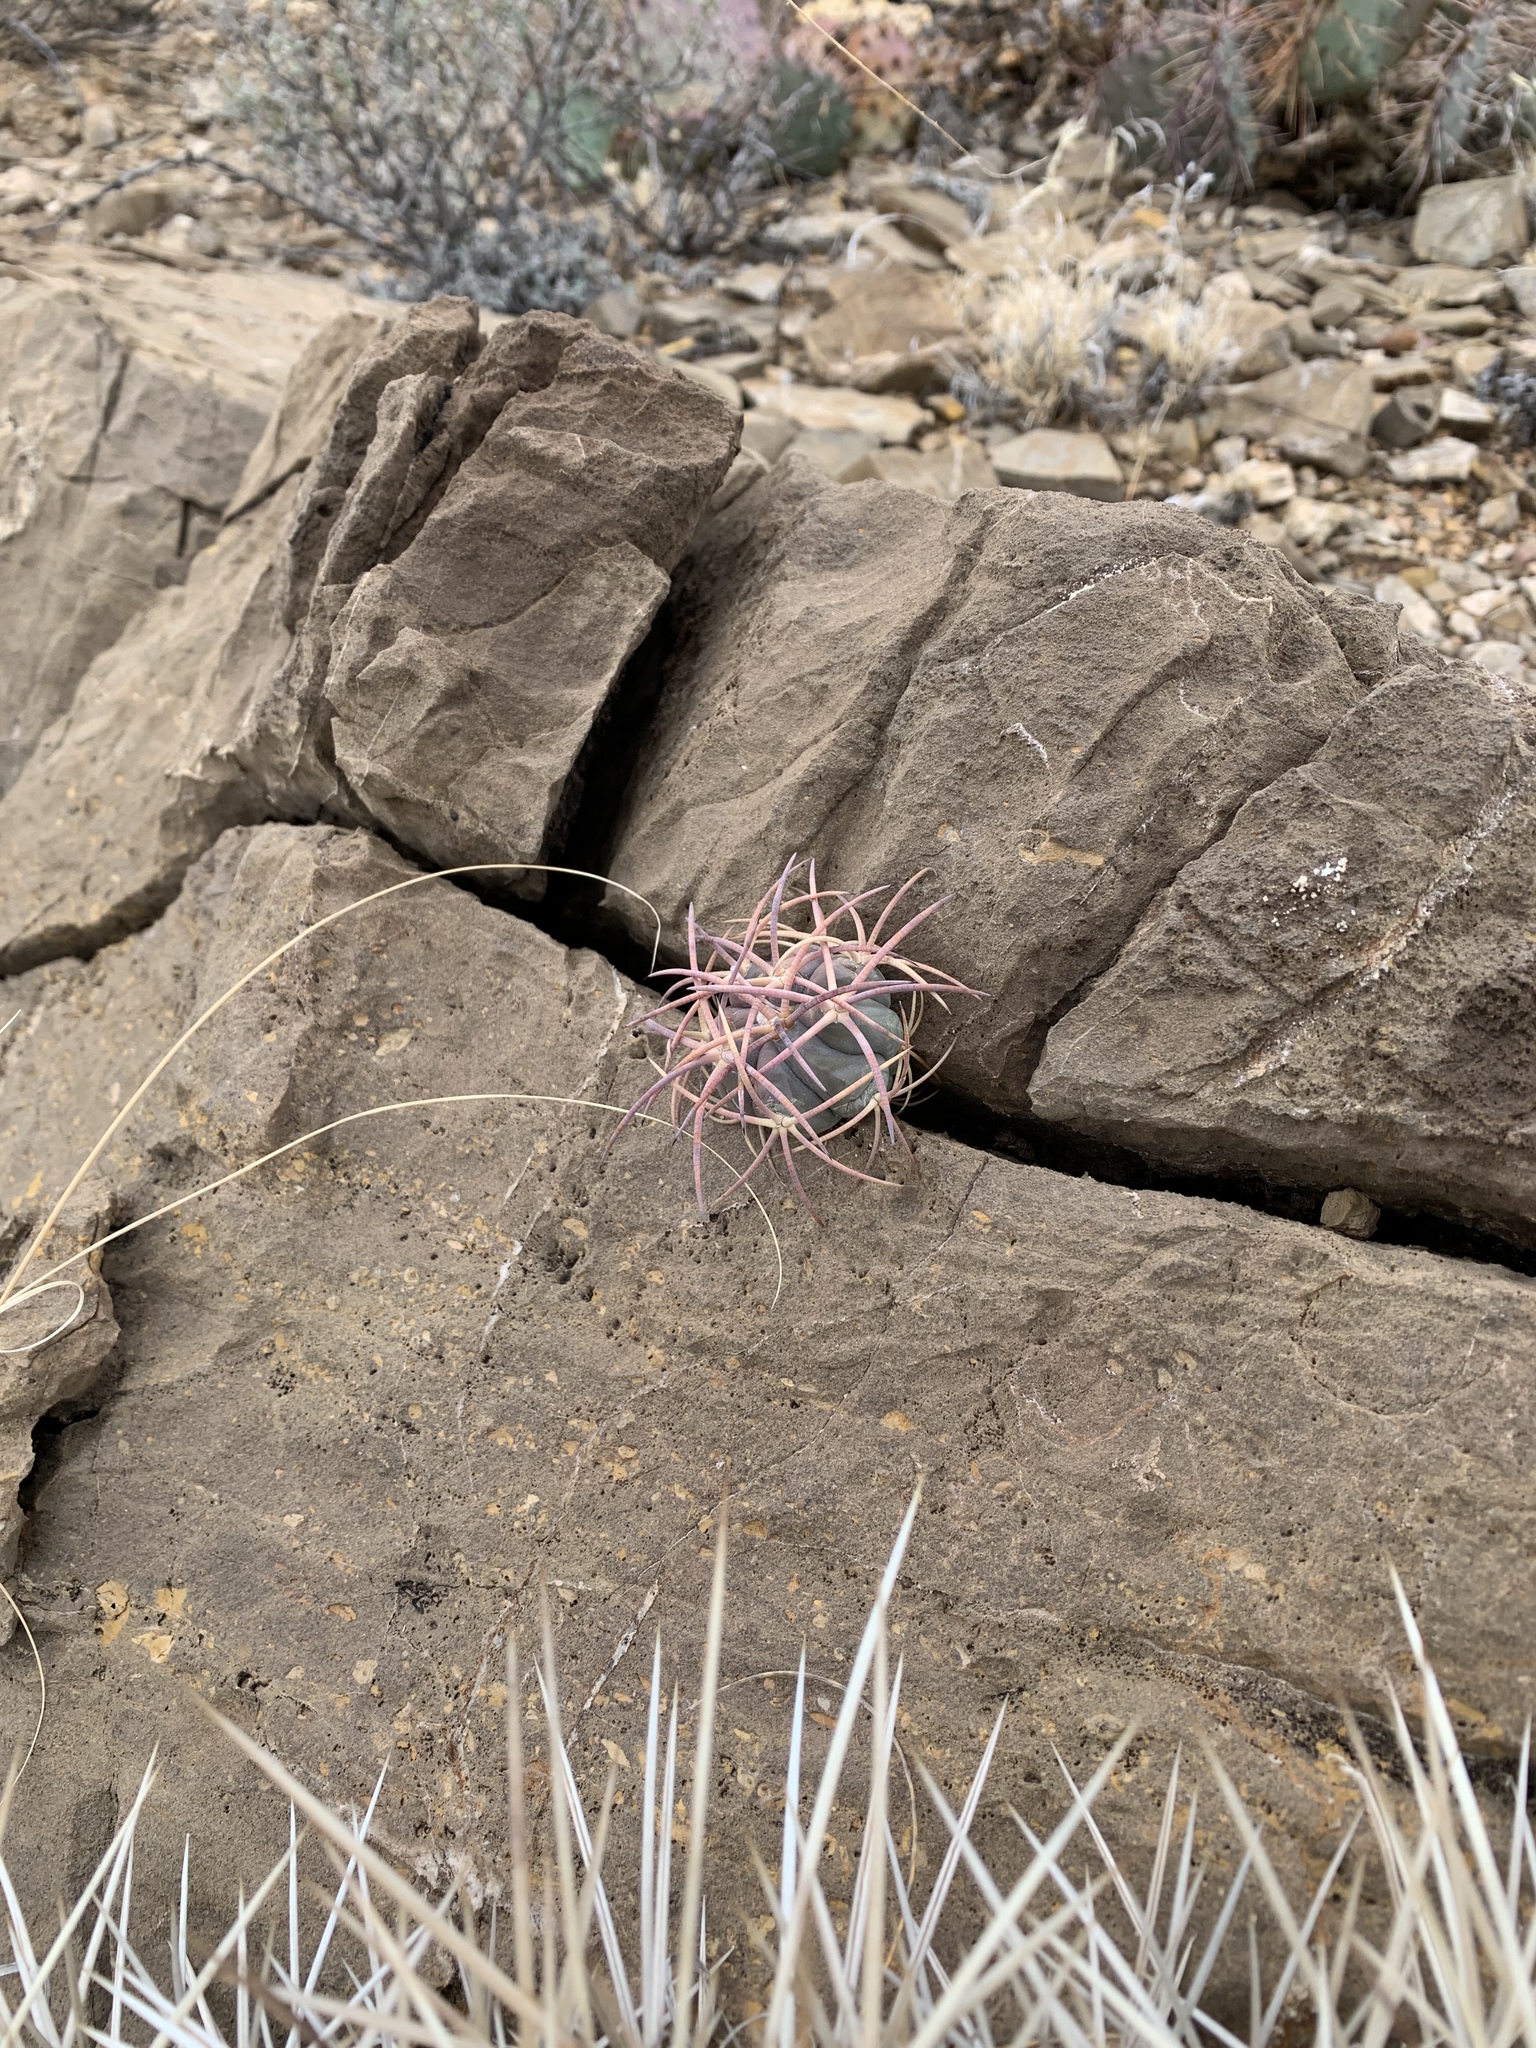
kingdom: Plantae
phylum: Tracheophyta
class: Magnoliopsida
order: Caryophyllales
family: Cactaceae
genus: Echinocactus
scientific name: Echinocactus horizonthalonius
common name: Devilshead
